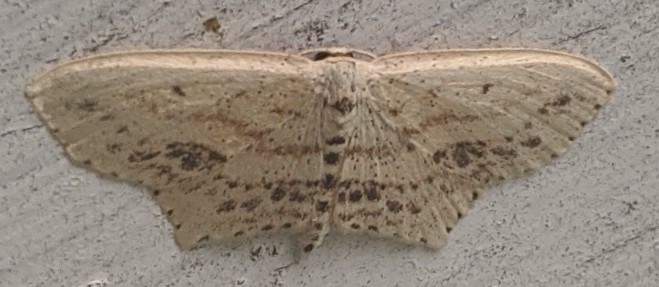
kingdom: Animalia
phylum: Arthropoda
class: Insecta
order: Lepidoptera
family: Geometridae
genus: Scopula
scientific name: Scopula cacuminaria
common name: Frosted tan wave
